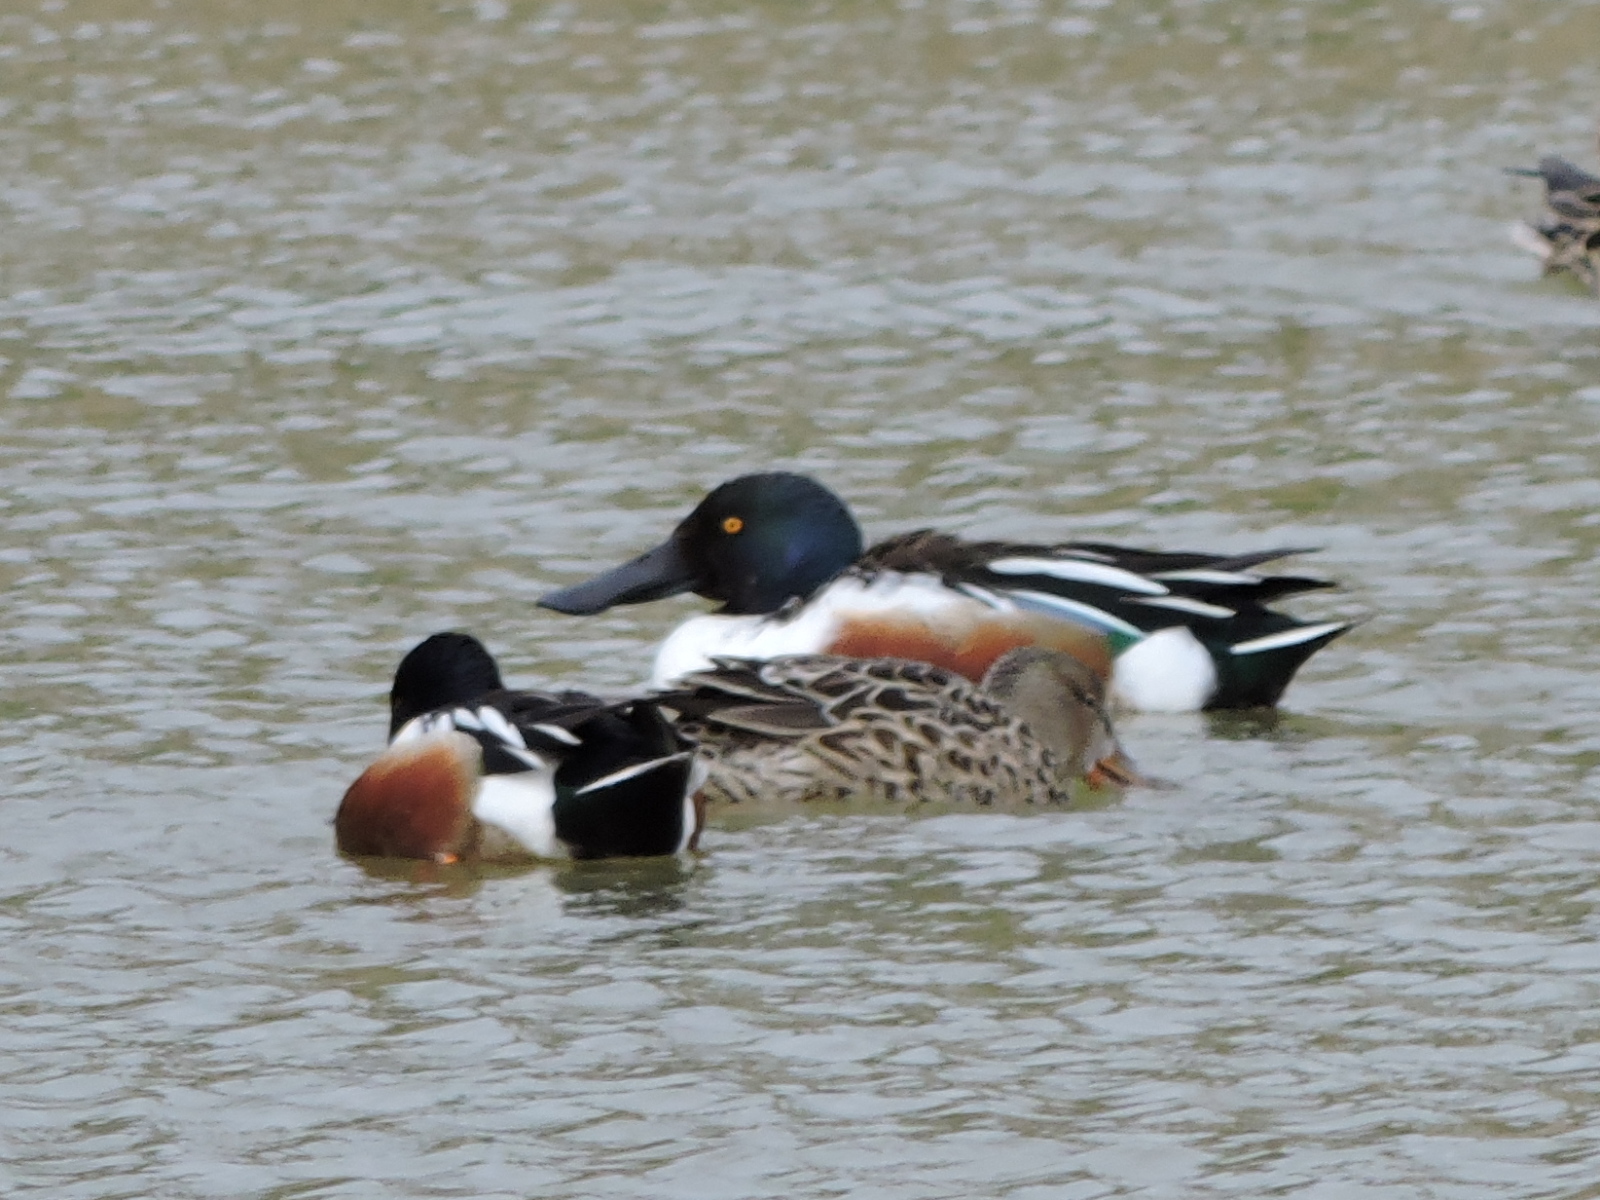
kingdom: Animalia
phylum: Chordata
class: Aves
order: Anseriformes
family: Anatidae
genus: Spatula
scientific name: Spatula clypeata
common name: Northern shoveler
